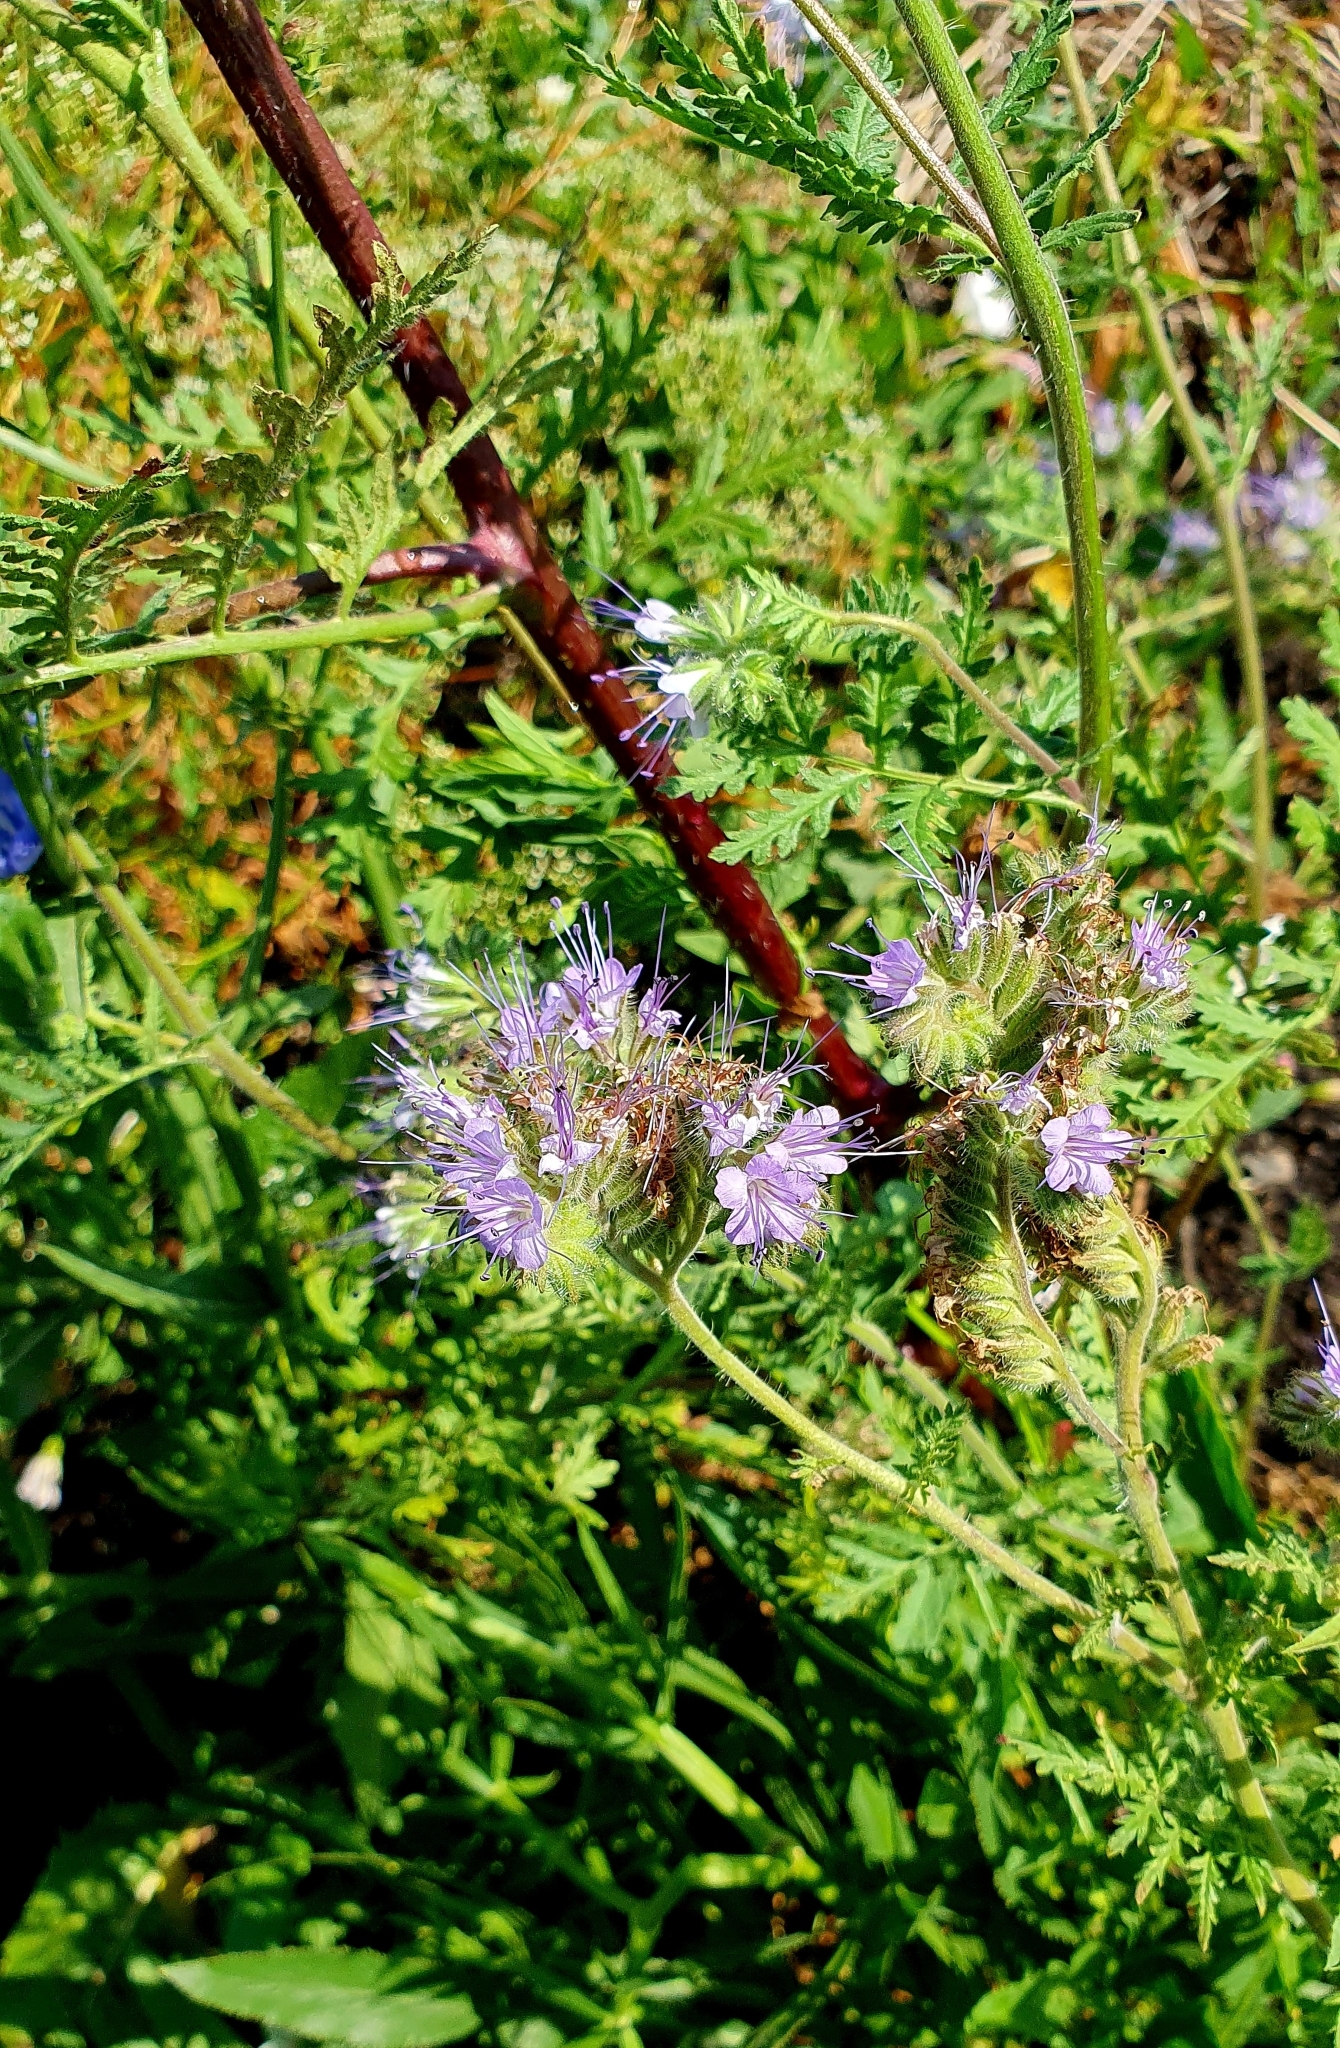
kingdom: Plantae
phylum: Tracheophyta
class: Magnoliopsida
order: Boraginales
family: Hydrophyllaceae
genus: Phacelia
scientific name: Phacelia tanacetifolia
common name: Phacelia
